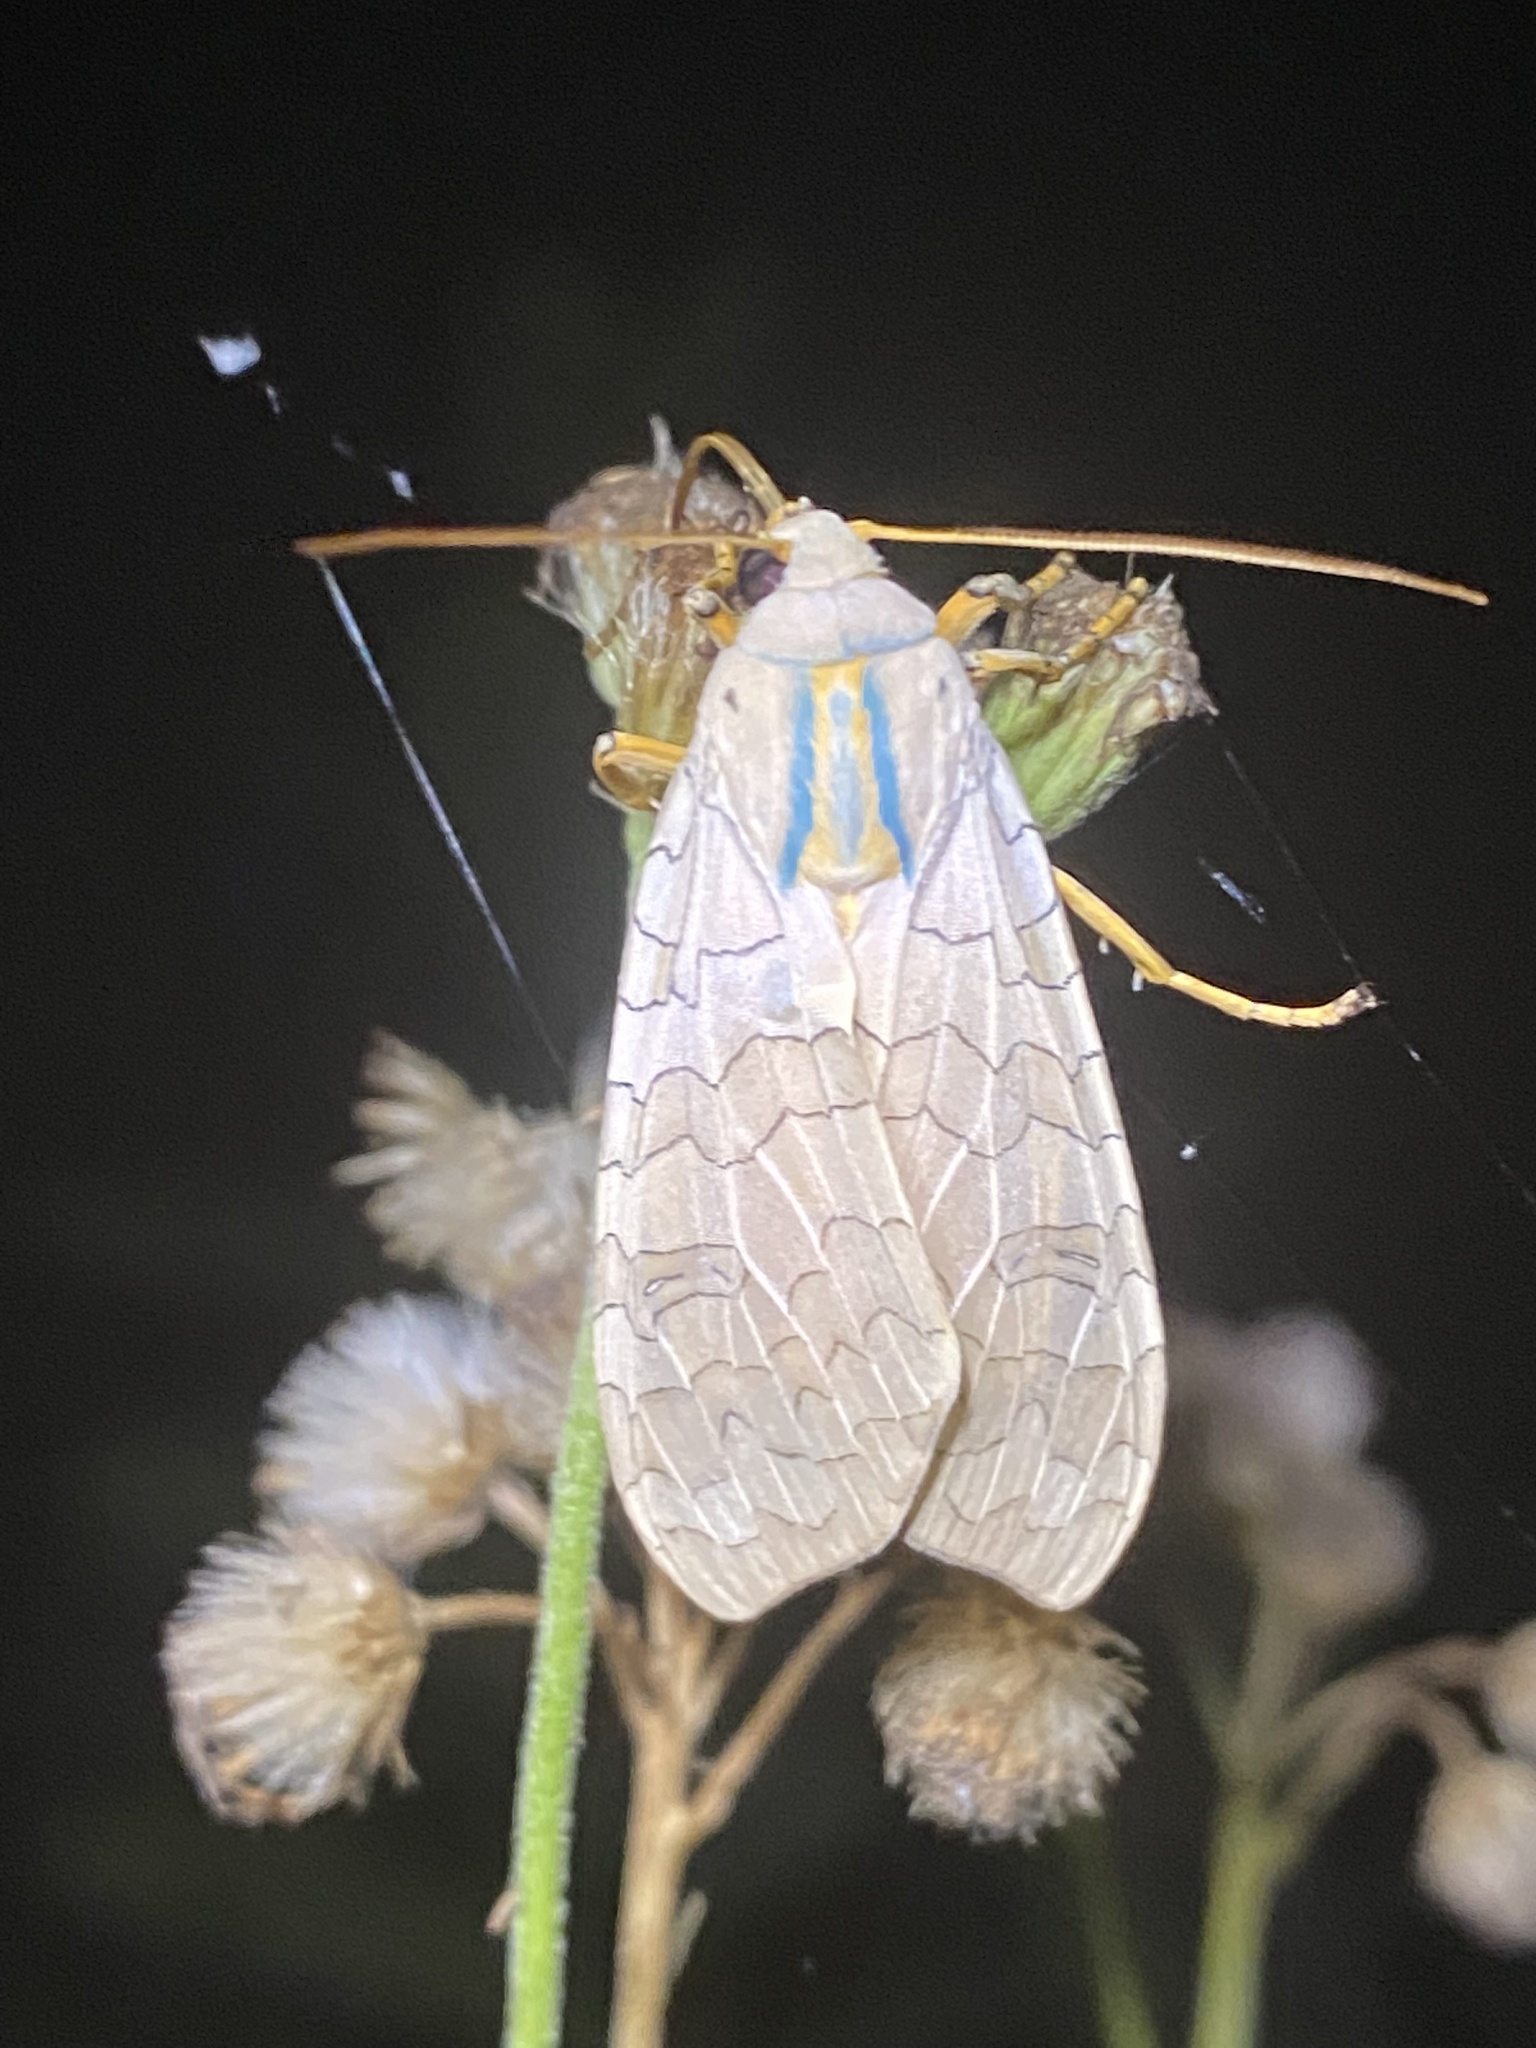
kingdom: Animalia
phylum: Arthropoda
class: Insecta
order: Lepidoptera
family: Erebidae
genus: Halysidota
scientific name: Halysidota
